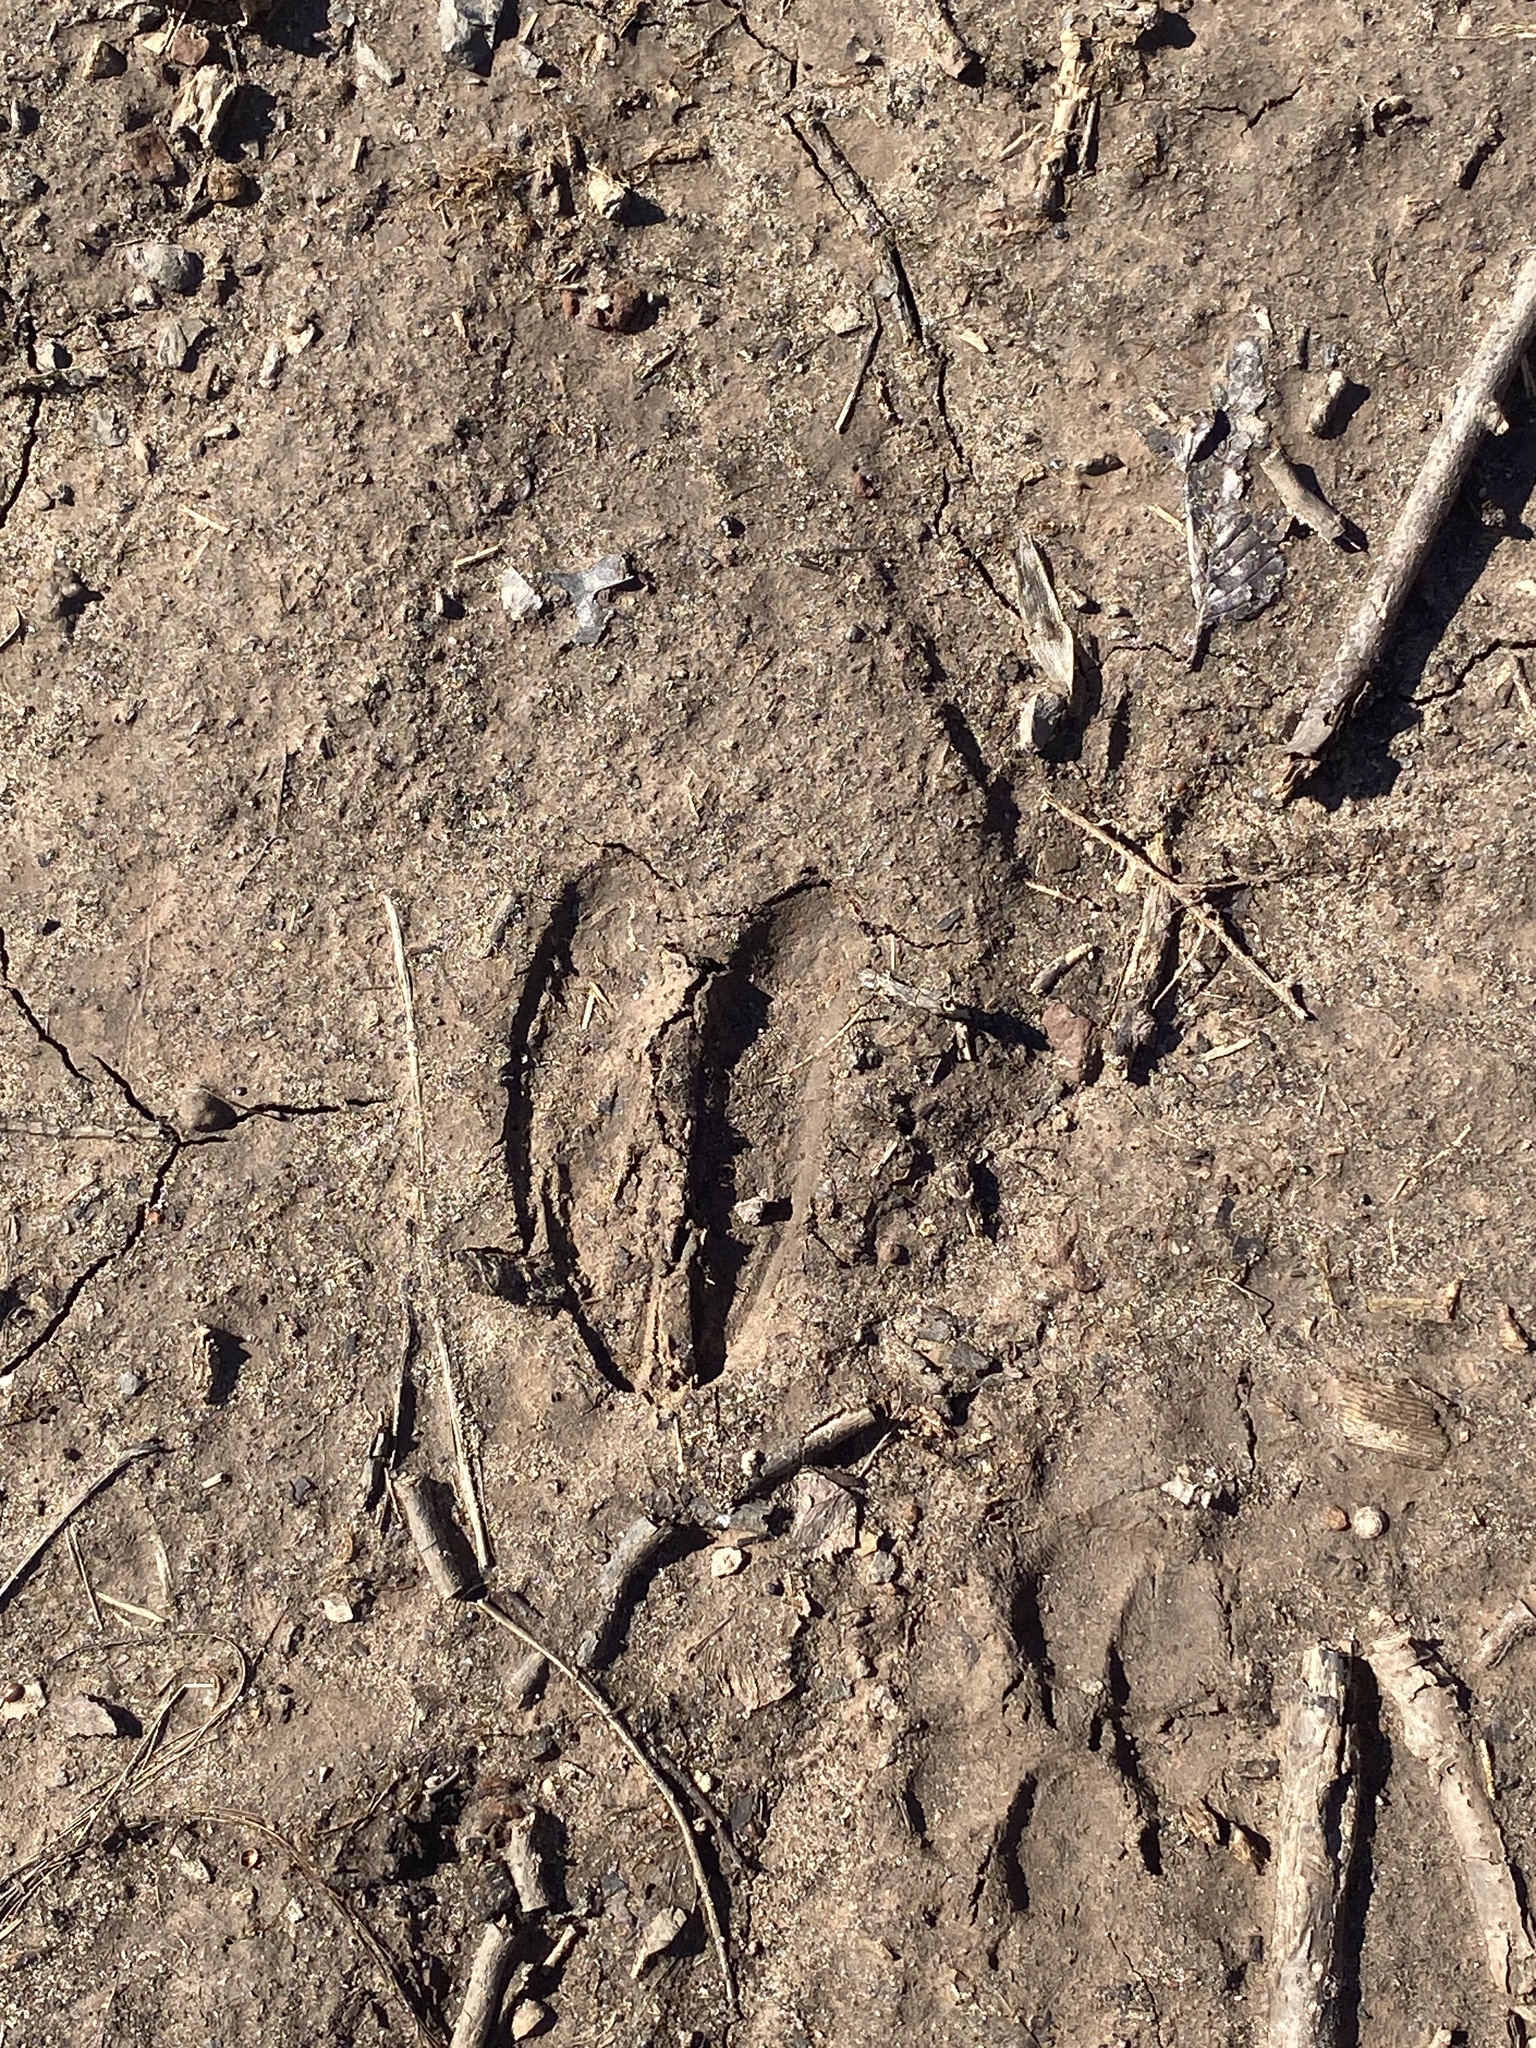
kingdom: Animalia
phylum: Chordata
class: Mammalia
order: Artiodactyla
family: Cervidae
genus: Odocoileus
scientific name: Odocoileus virginianus
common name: White-tailed deer
